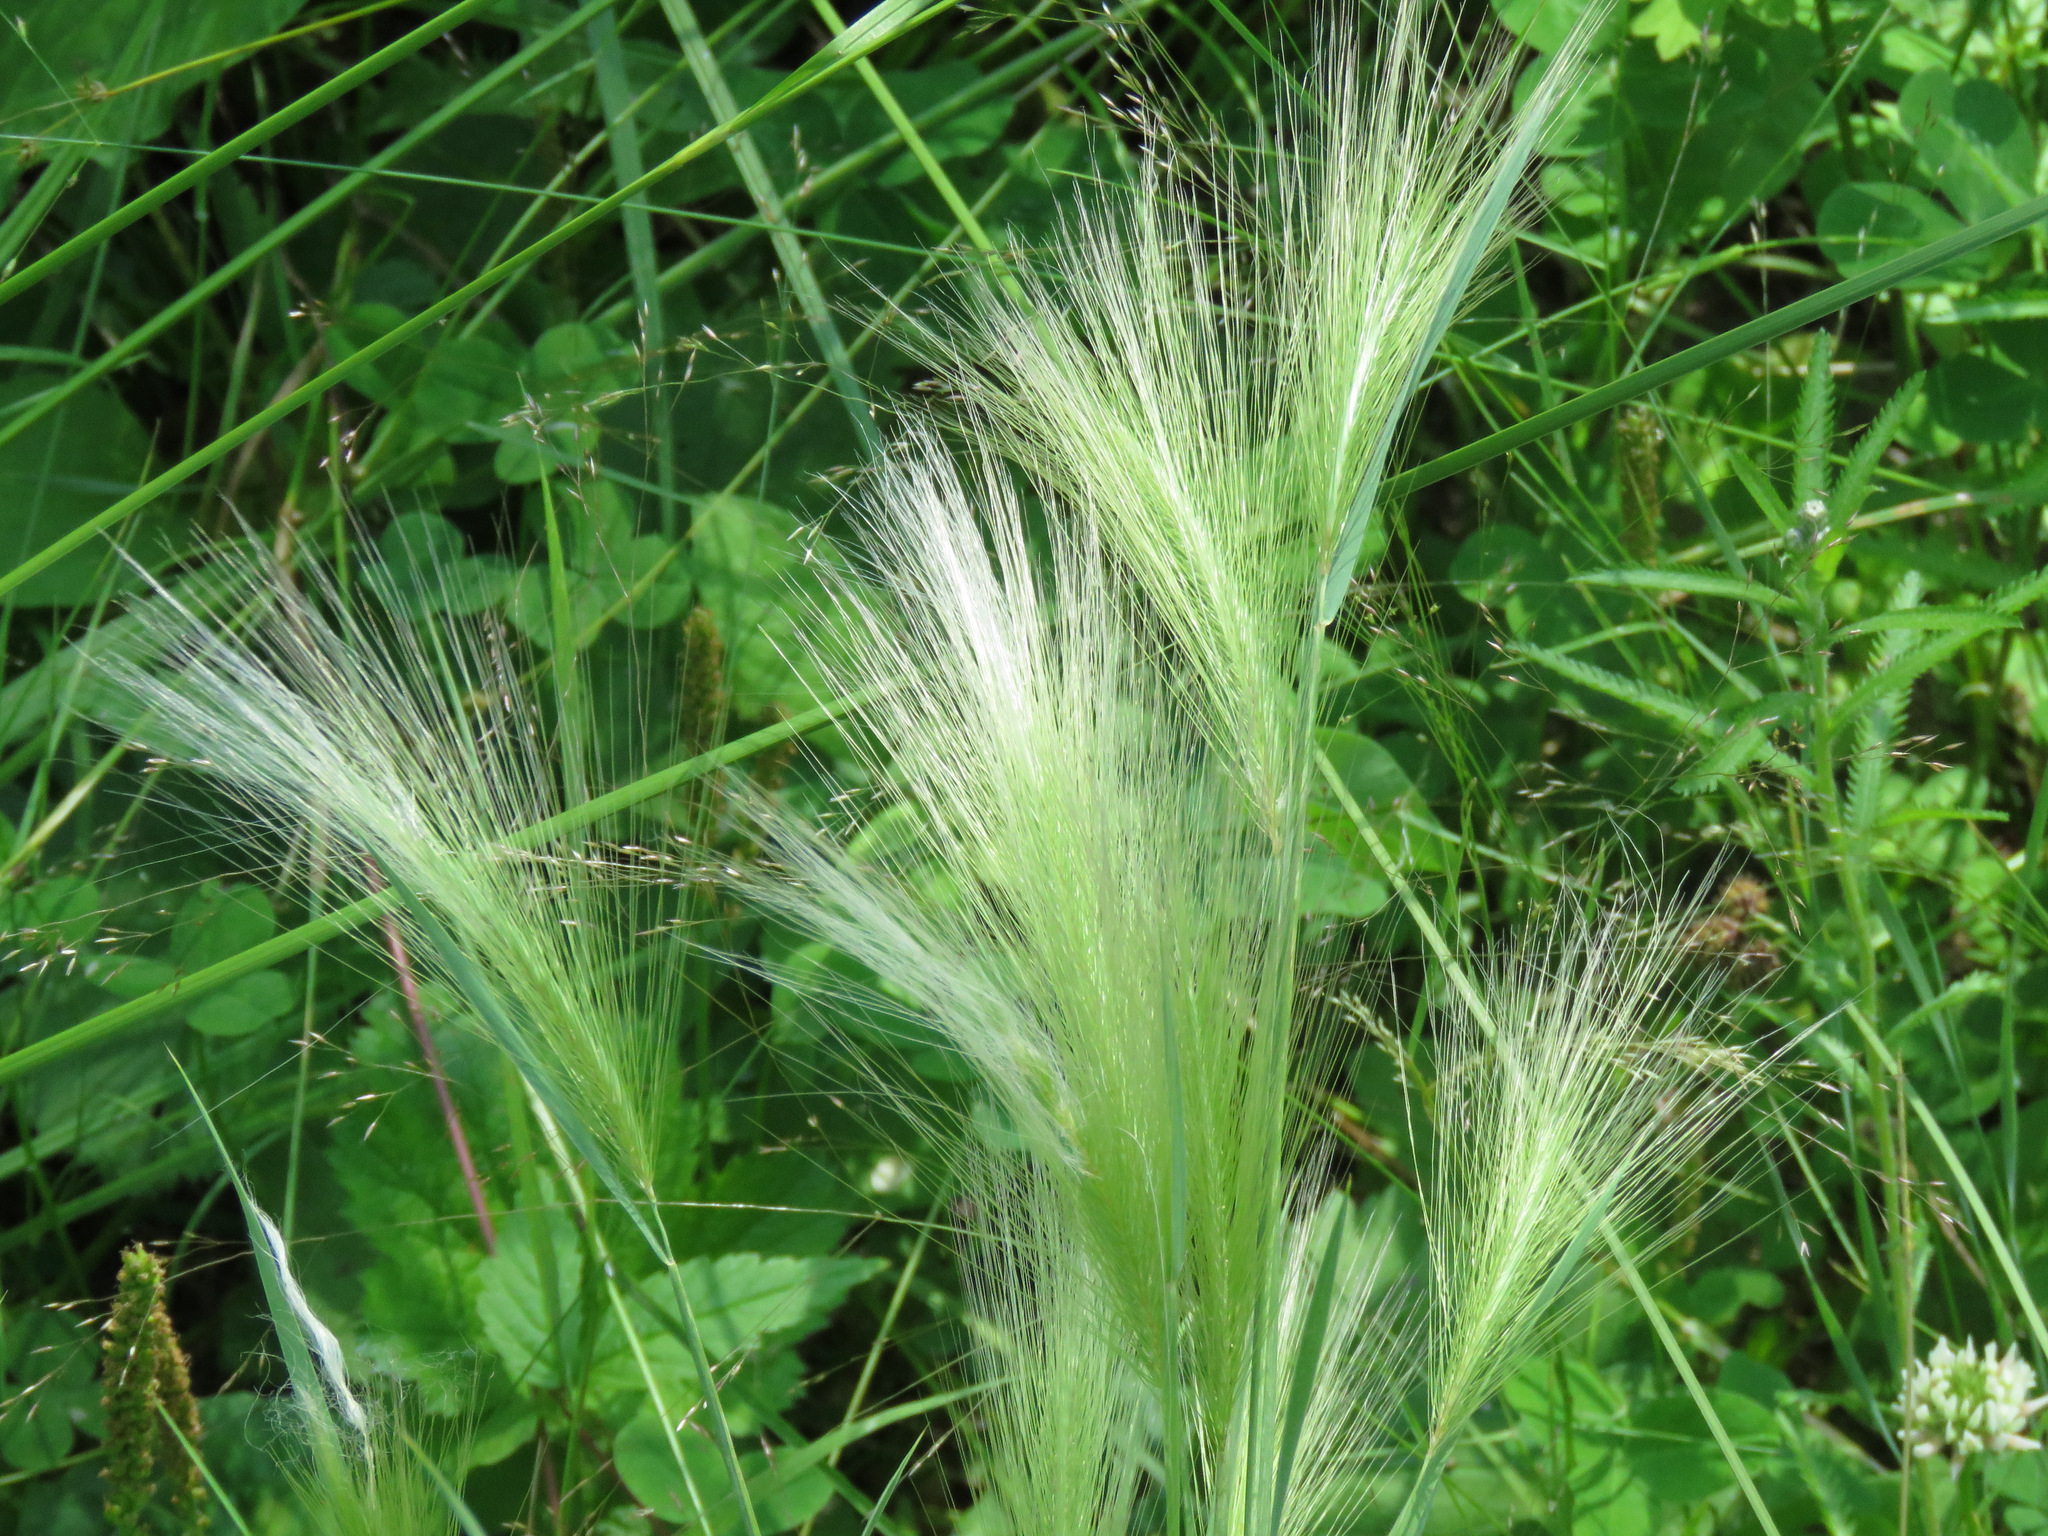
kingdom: Plantae
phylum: Tracheophyta
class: Liliopsida
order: Poales
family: Poaceae
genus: Hordeum
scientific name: Hordeum jubatum
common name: Foxtail barley
